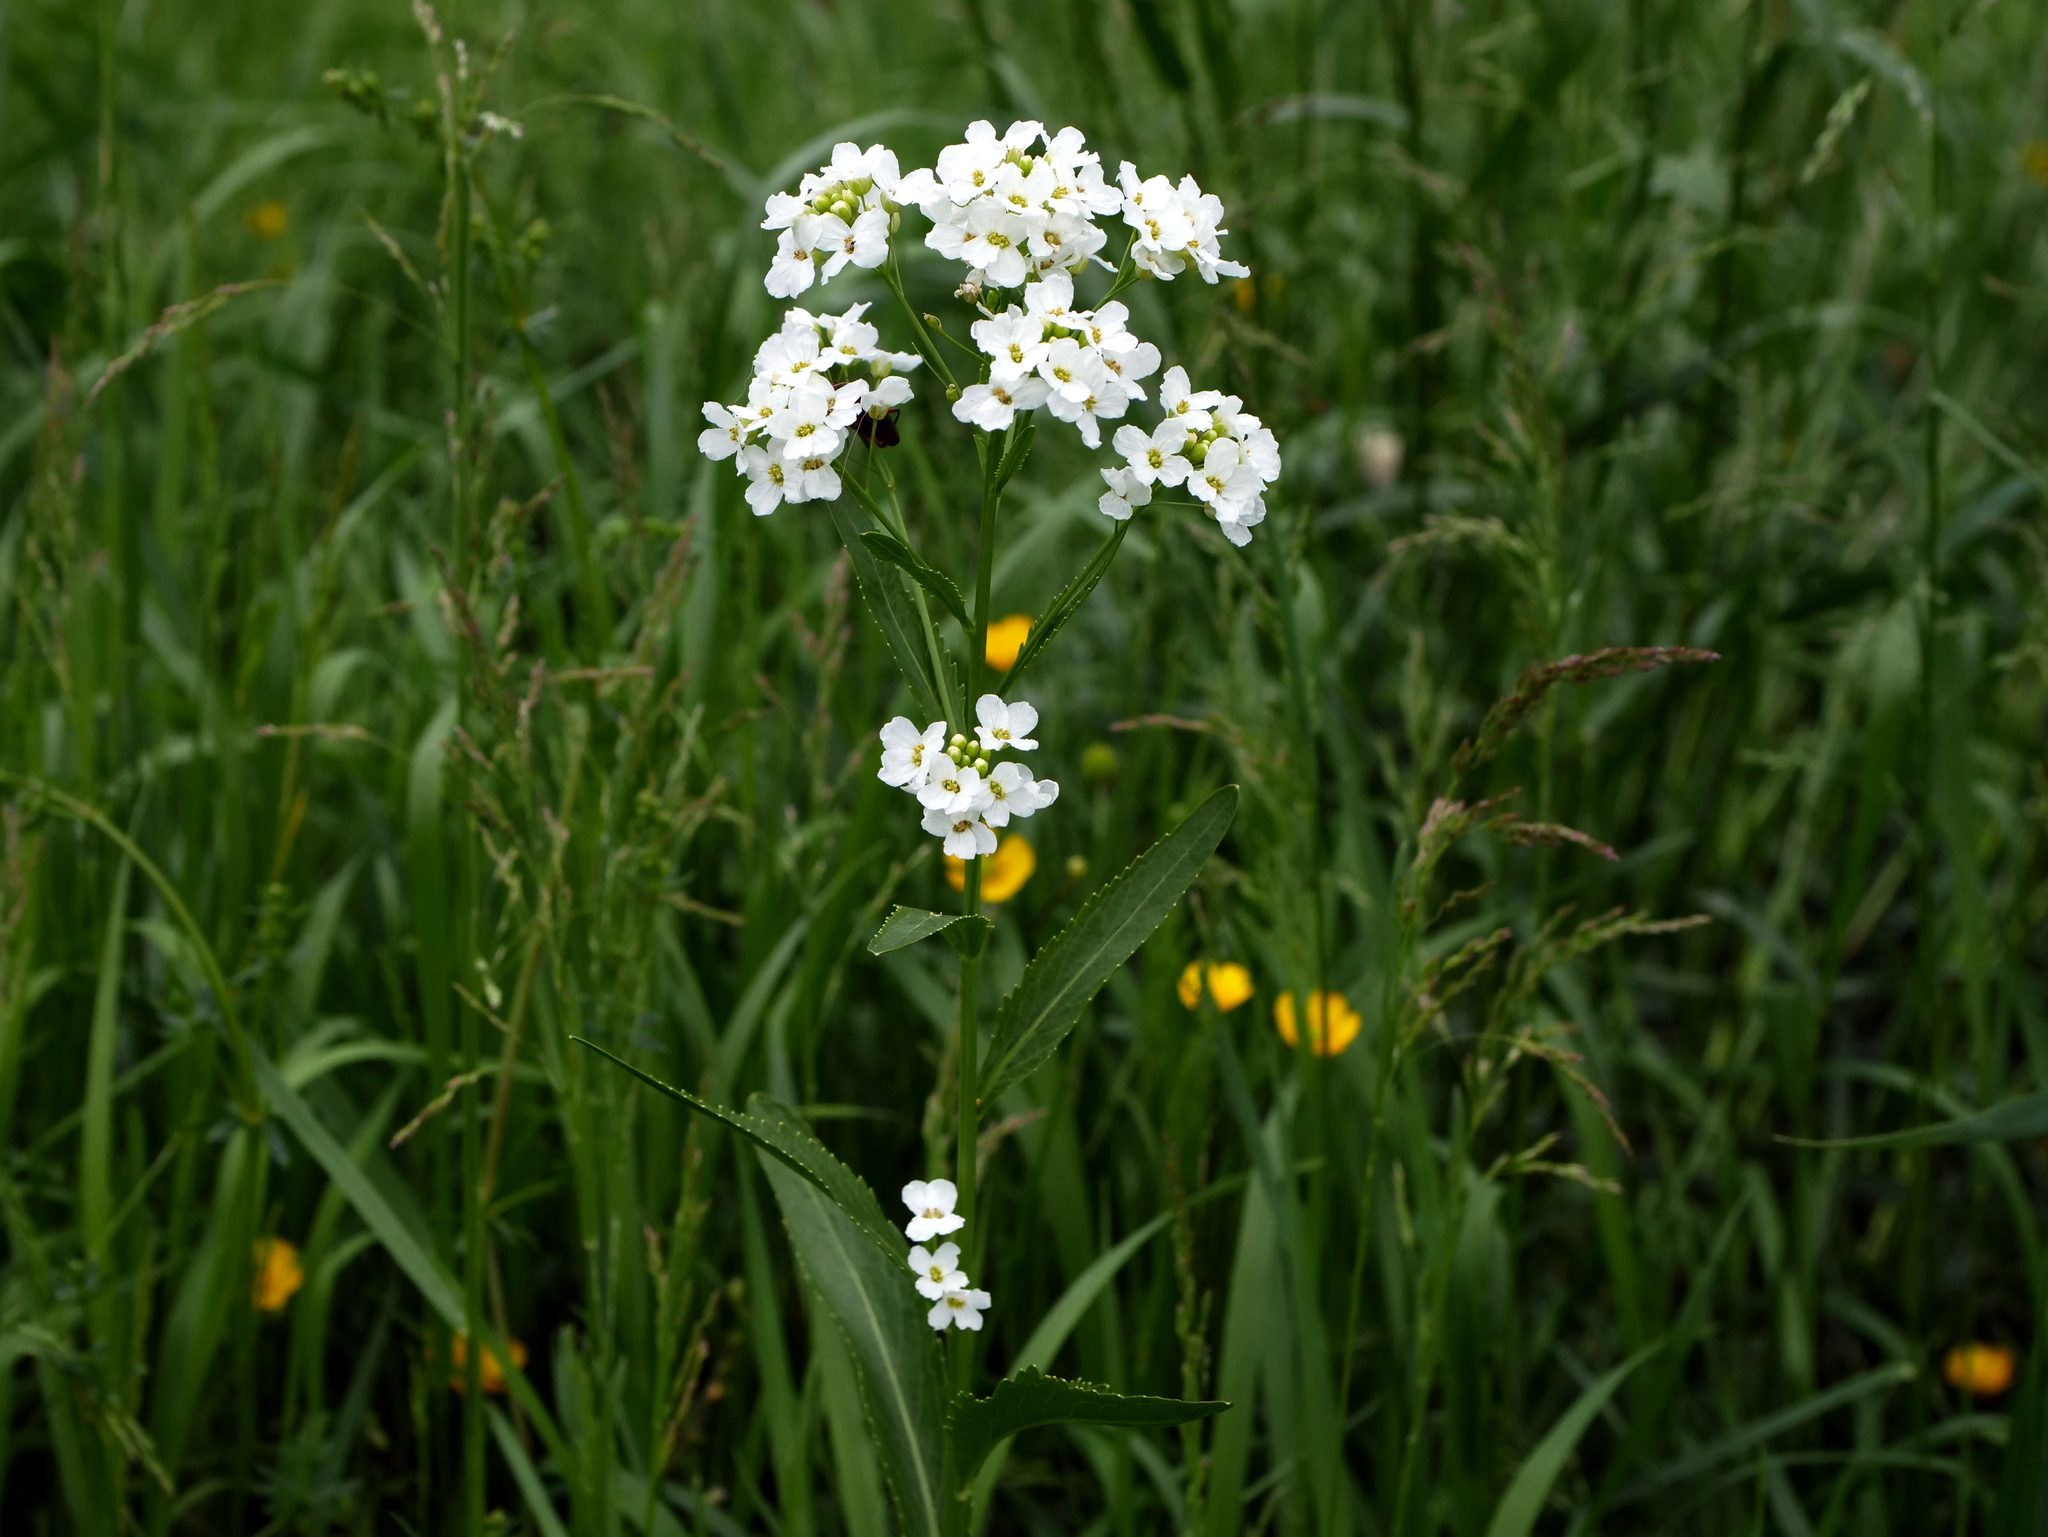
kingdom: Plantae
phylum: Tracheophyta
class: Magnoliopsida
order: Brassicales
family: Brassicaceae
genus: Armoracia
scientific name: Armoracia rusticana
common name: Horseradish
